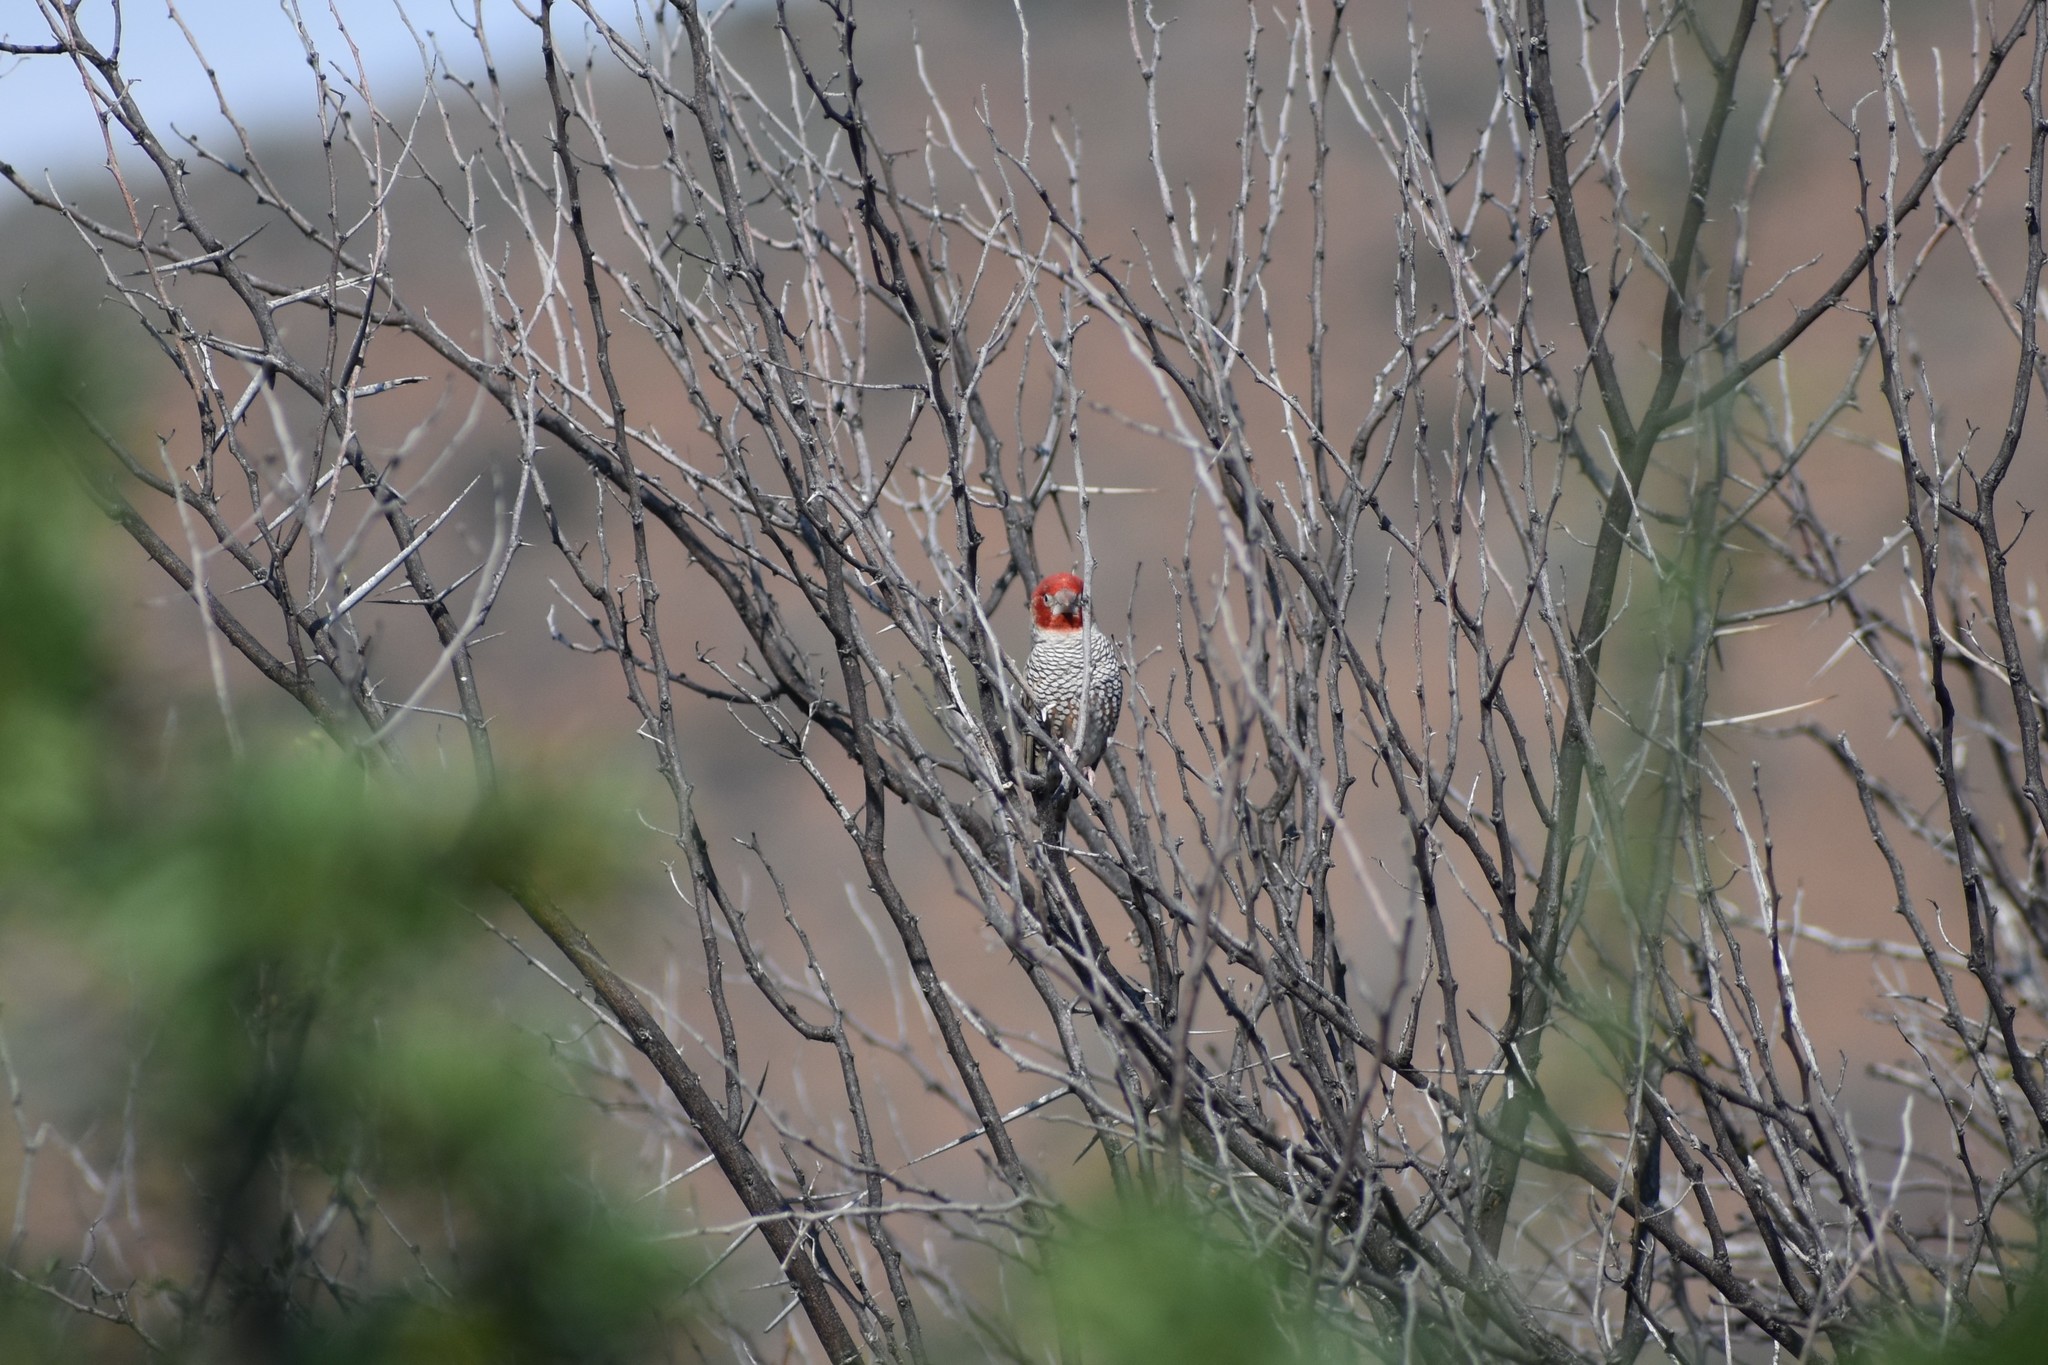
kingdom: Animalia
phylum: Chordata
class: Aves
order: Passeriformes
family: Estrildidae
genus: Amadina
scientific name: Amadina erythrocephala
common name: Red-headed finch
